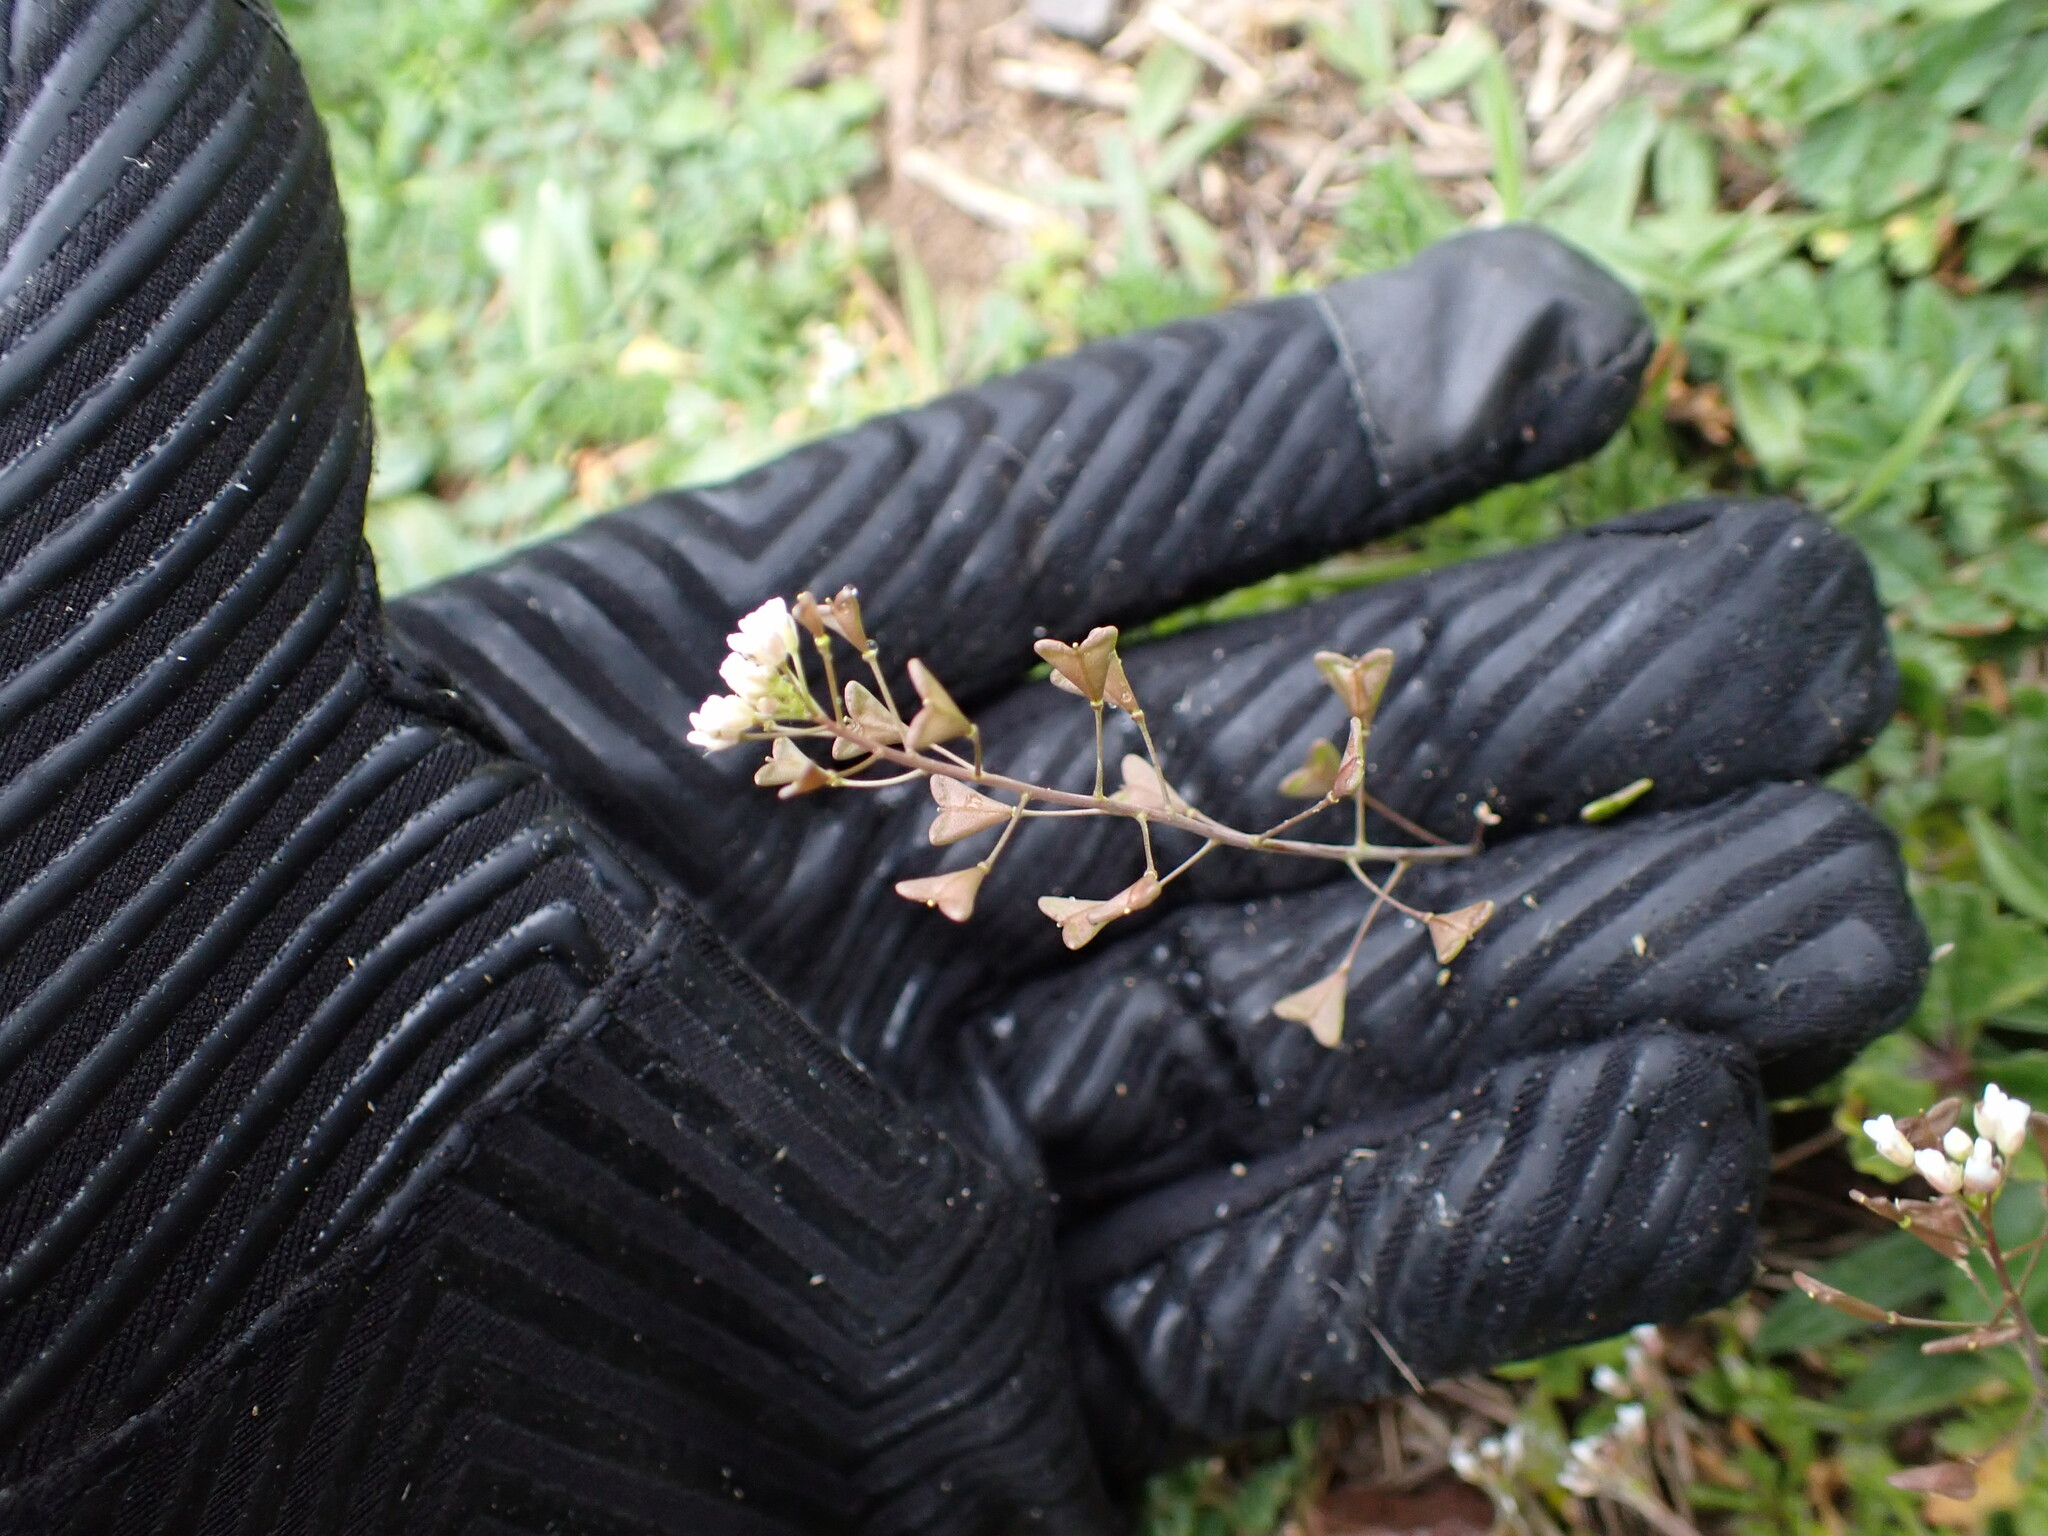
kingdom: Plantae
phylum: Tracheophyta
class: Magnoliopsida
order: Brassicales
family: Brassicaceae
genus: Capsella
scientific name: Capsella bursa-pastoris
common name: Shepherd's purse
